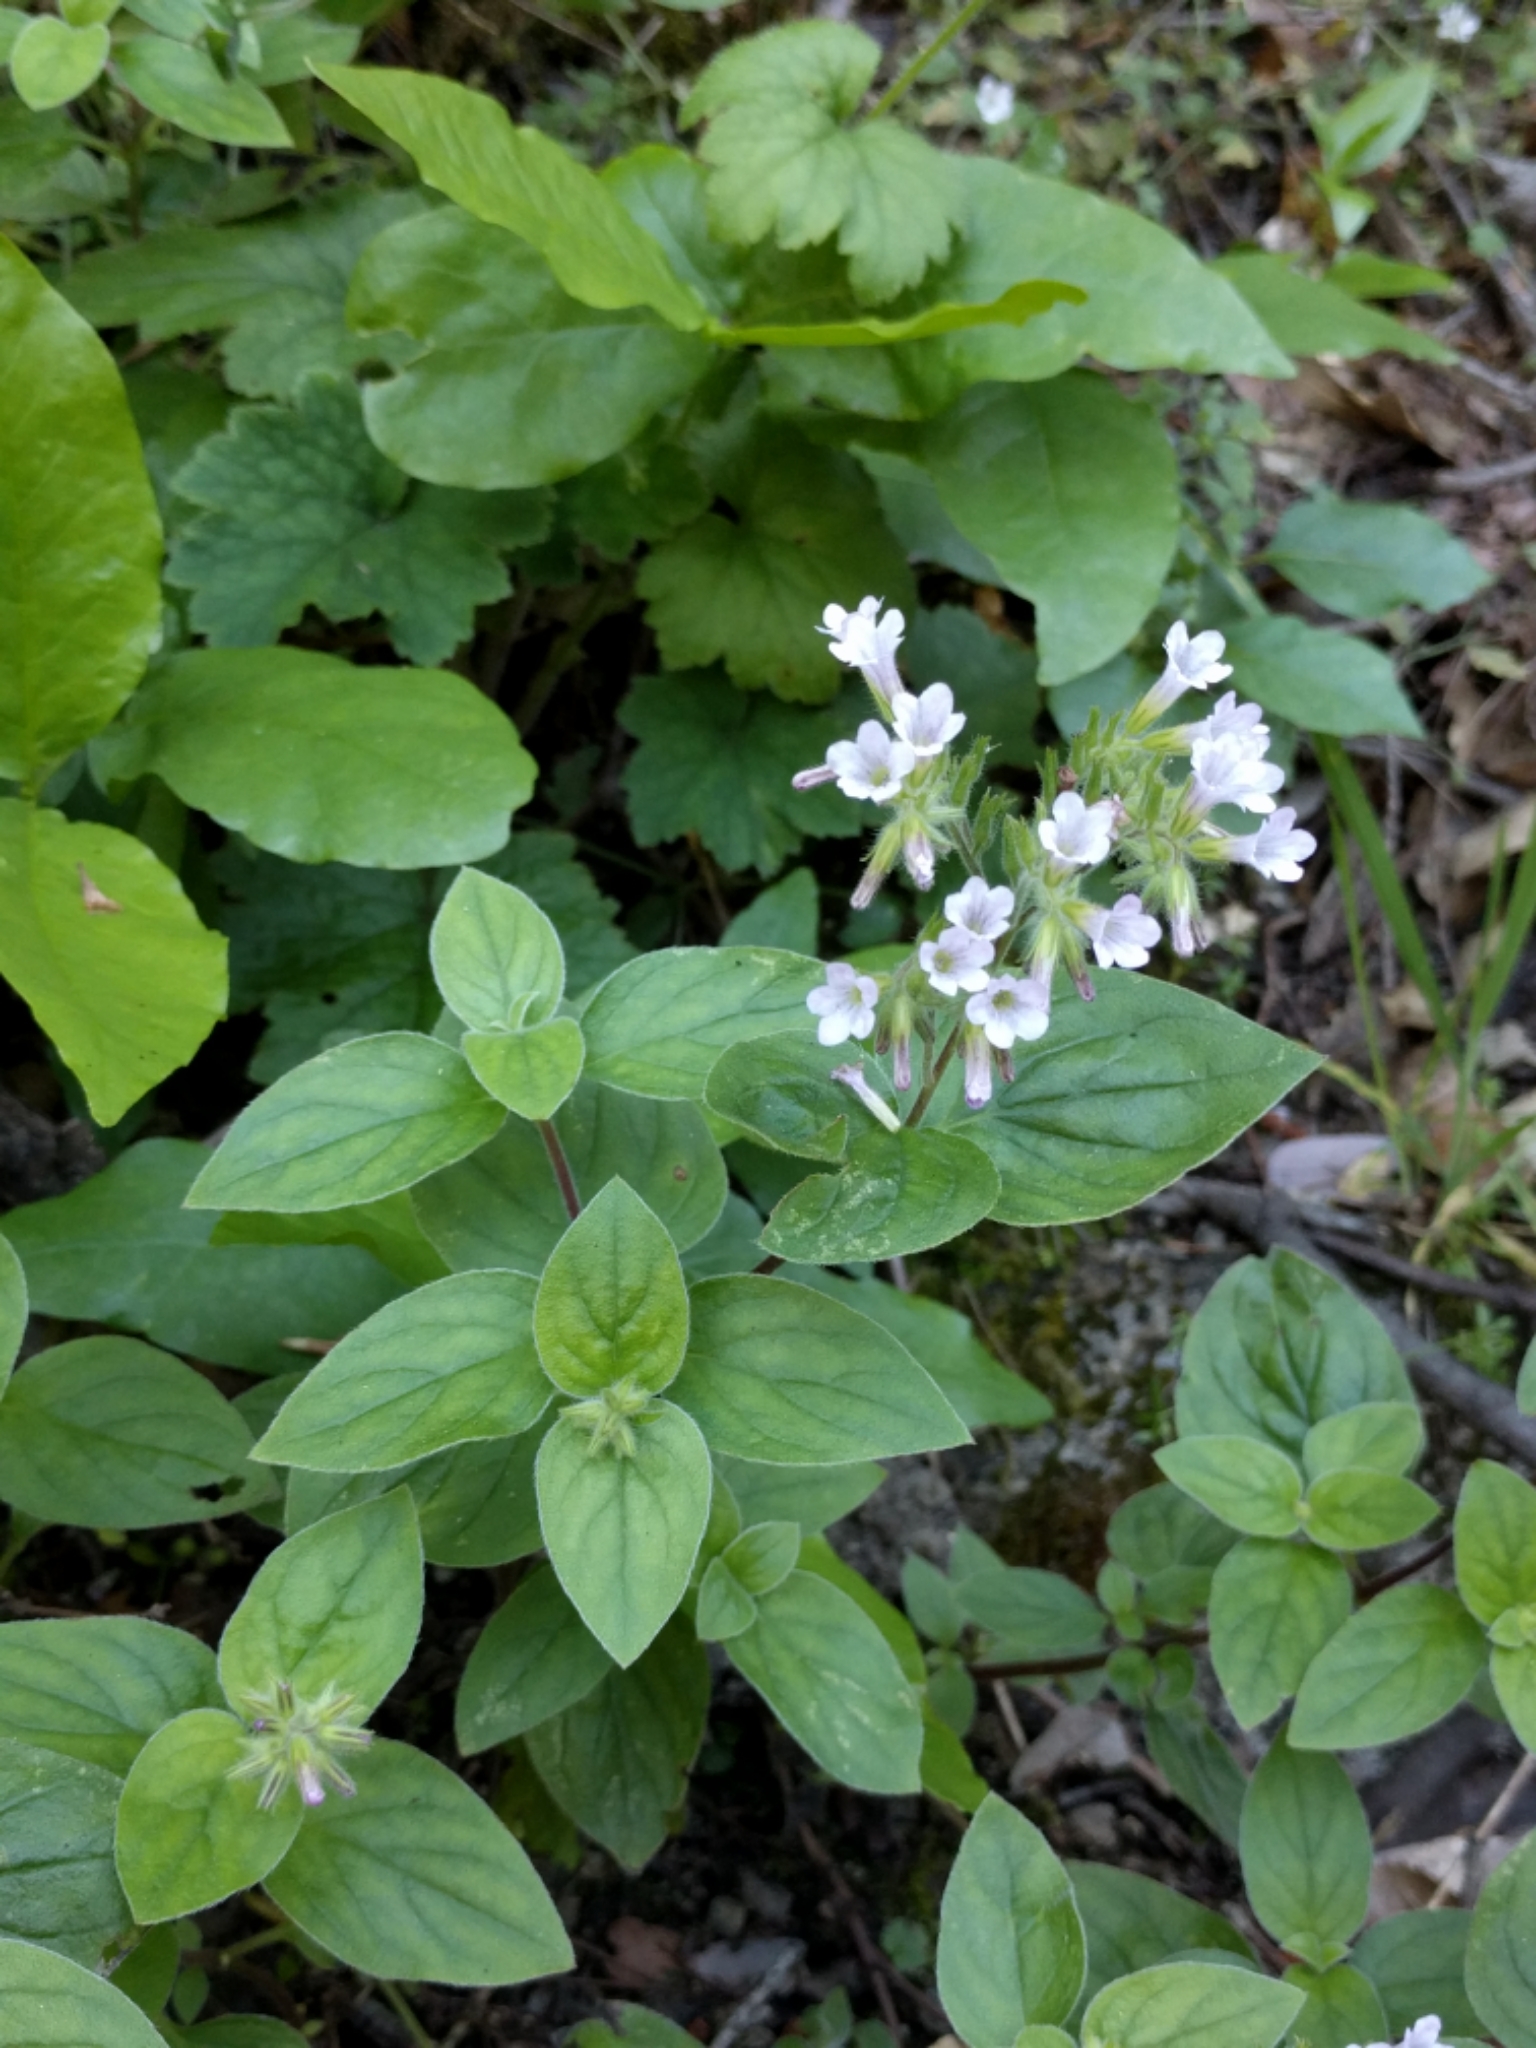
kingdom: Plantae
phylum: Tracheophyta
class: Magnoliopsida
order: Boraginales
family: Hydrophyllaceae
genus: Draperia
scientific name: Draperia systyla
